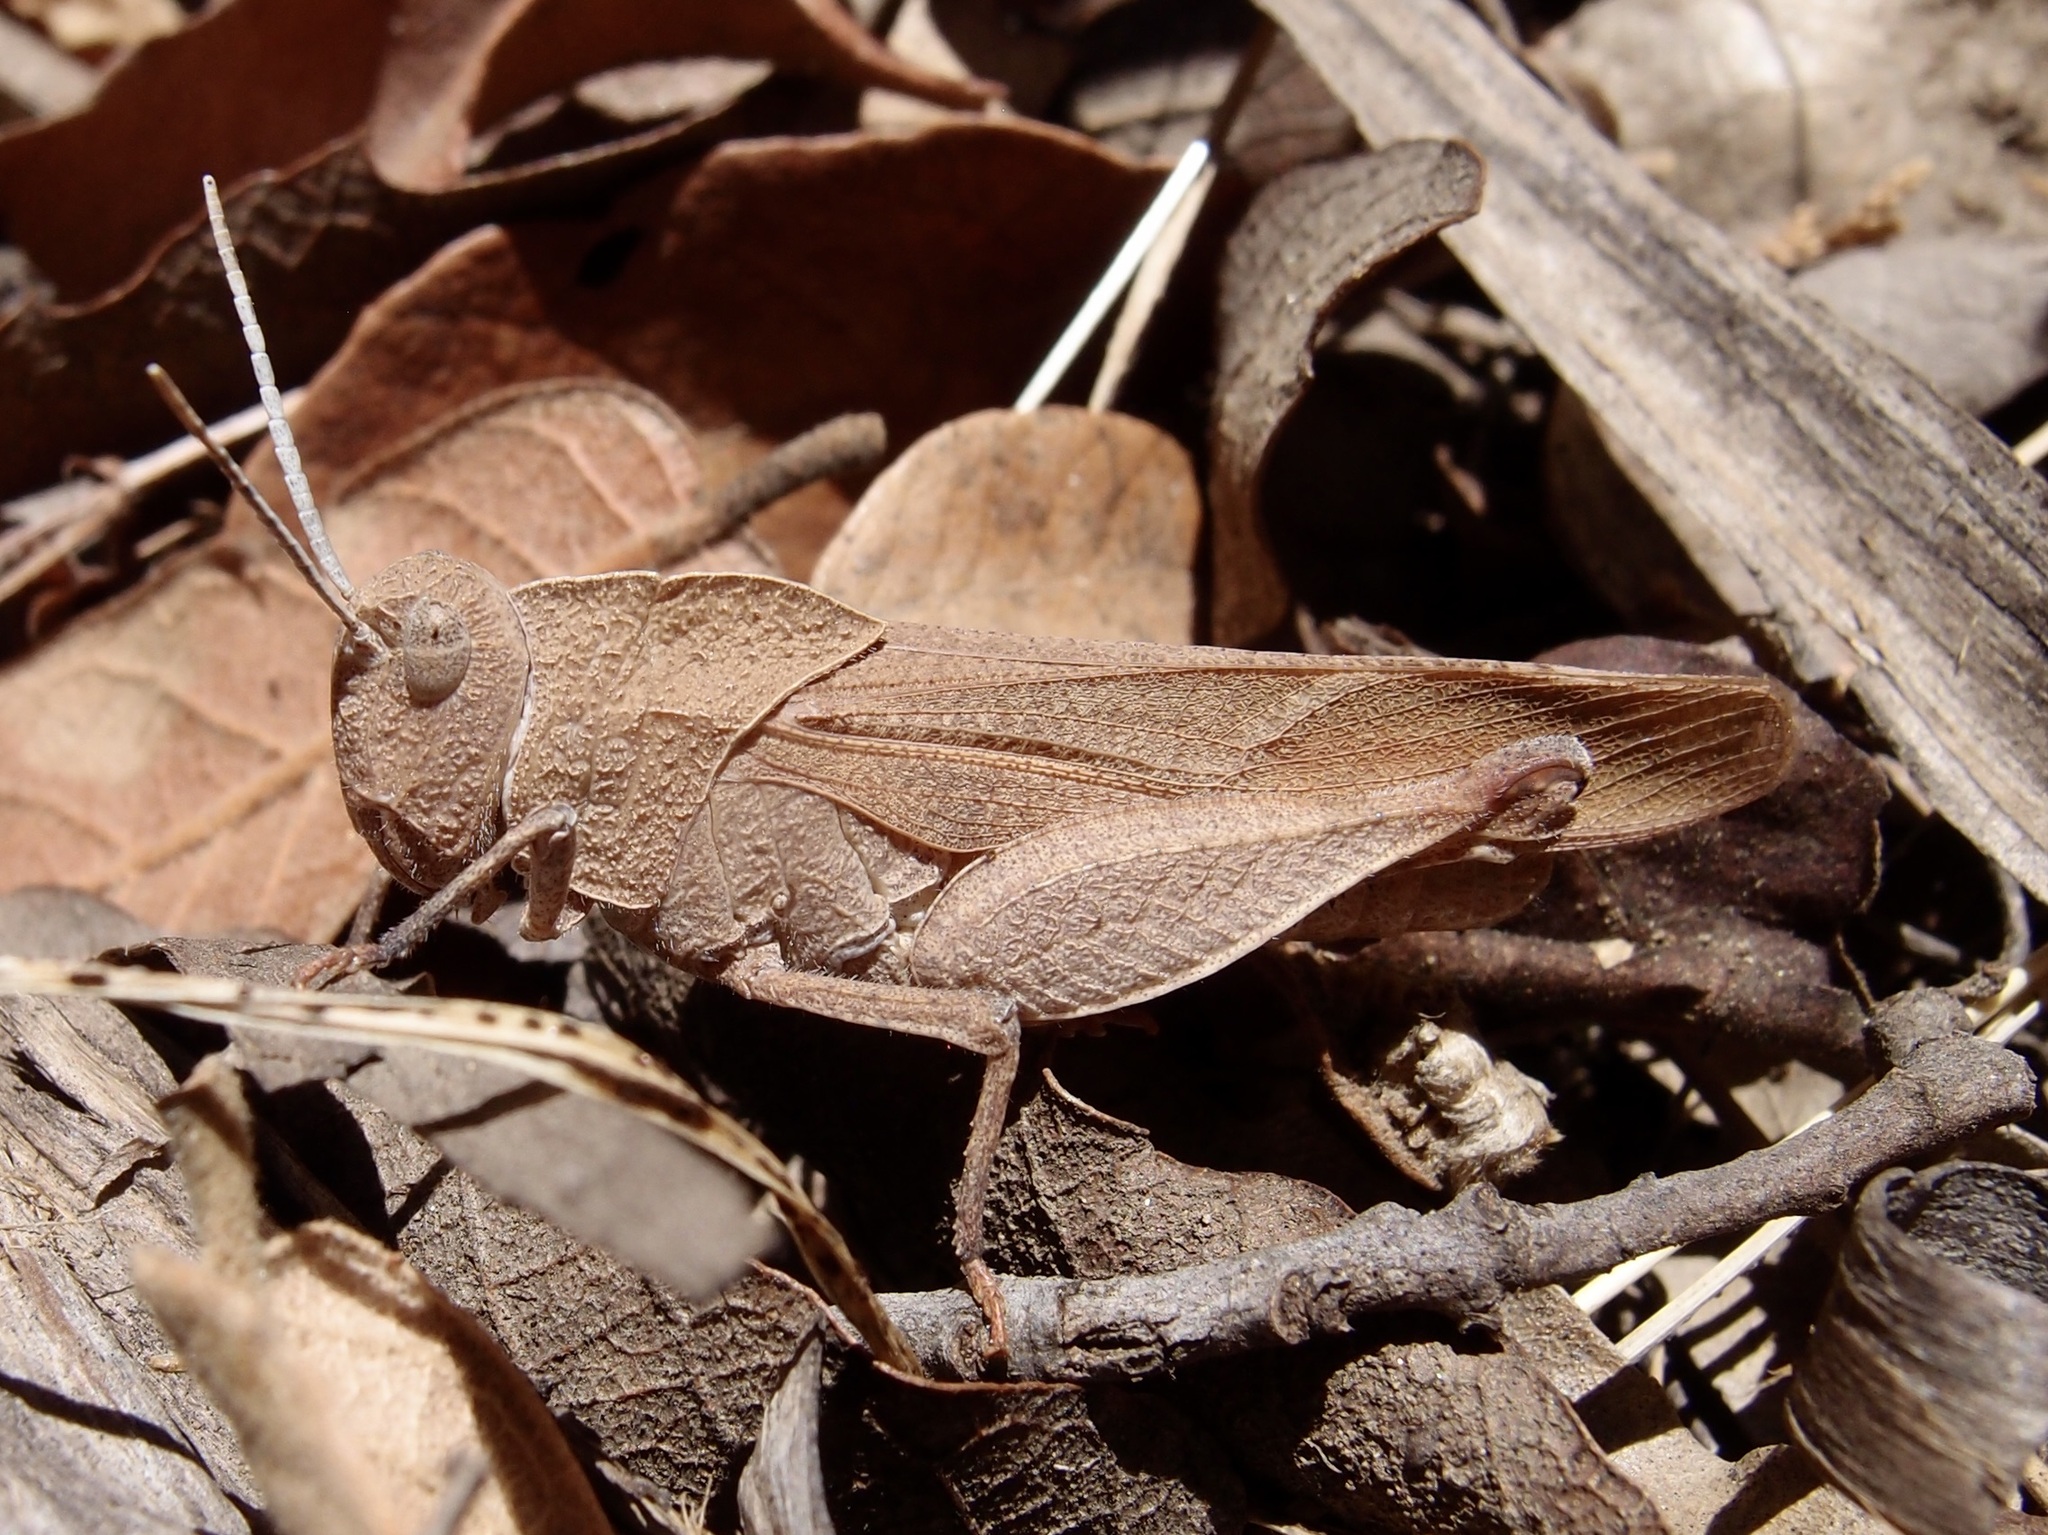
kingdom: Animalia
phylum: Arthropoda
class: Insecta
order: Orthoptera
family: Acrididae
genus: Tomonotus
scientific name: Tomonotus ferruginosus
